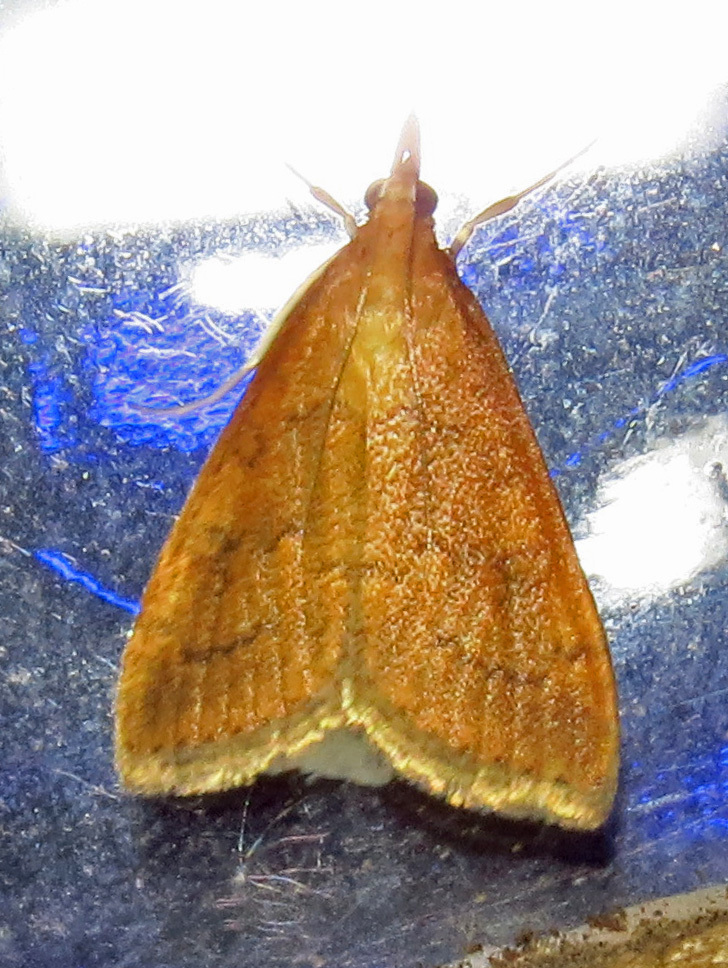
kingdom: Animalia
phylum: Arthropoda
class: Insecta
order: Lepidoptera
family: Crambidae
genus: Udea
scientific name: Udea rubigalis
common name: Celery leaftier moth
